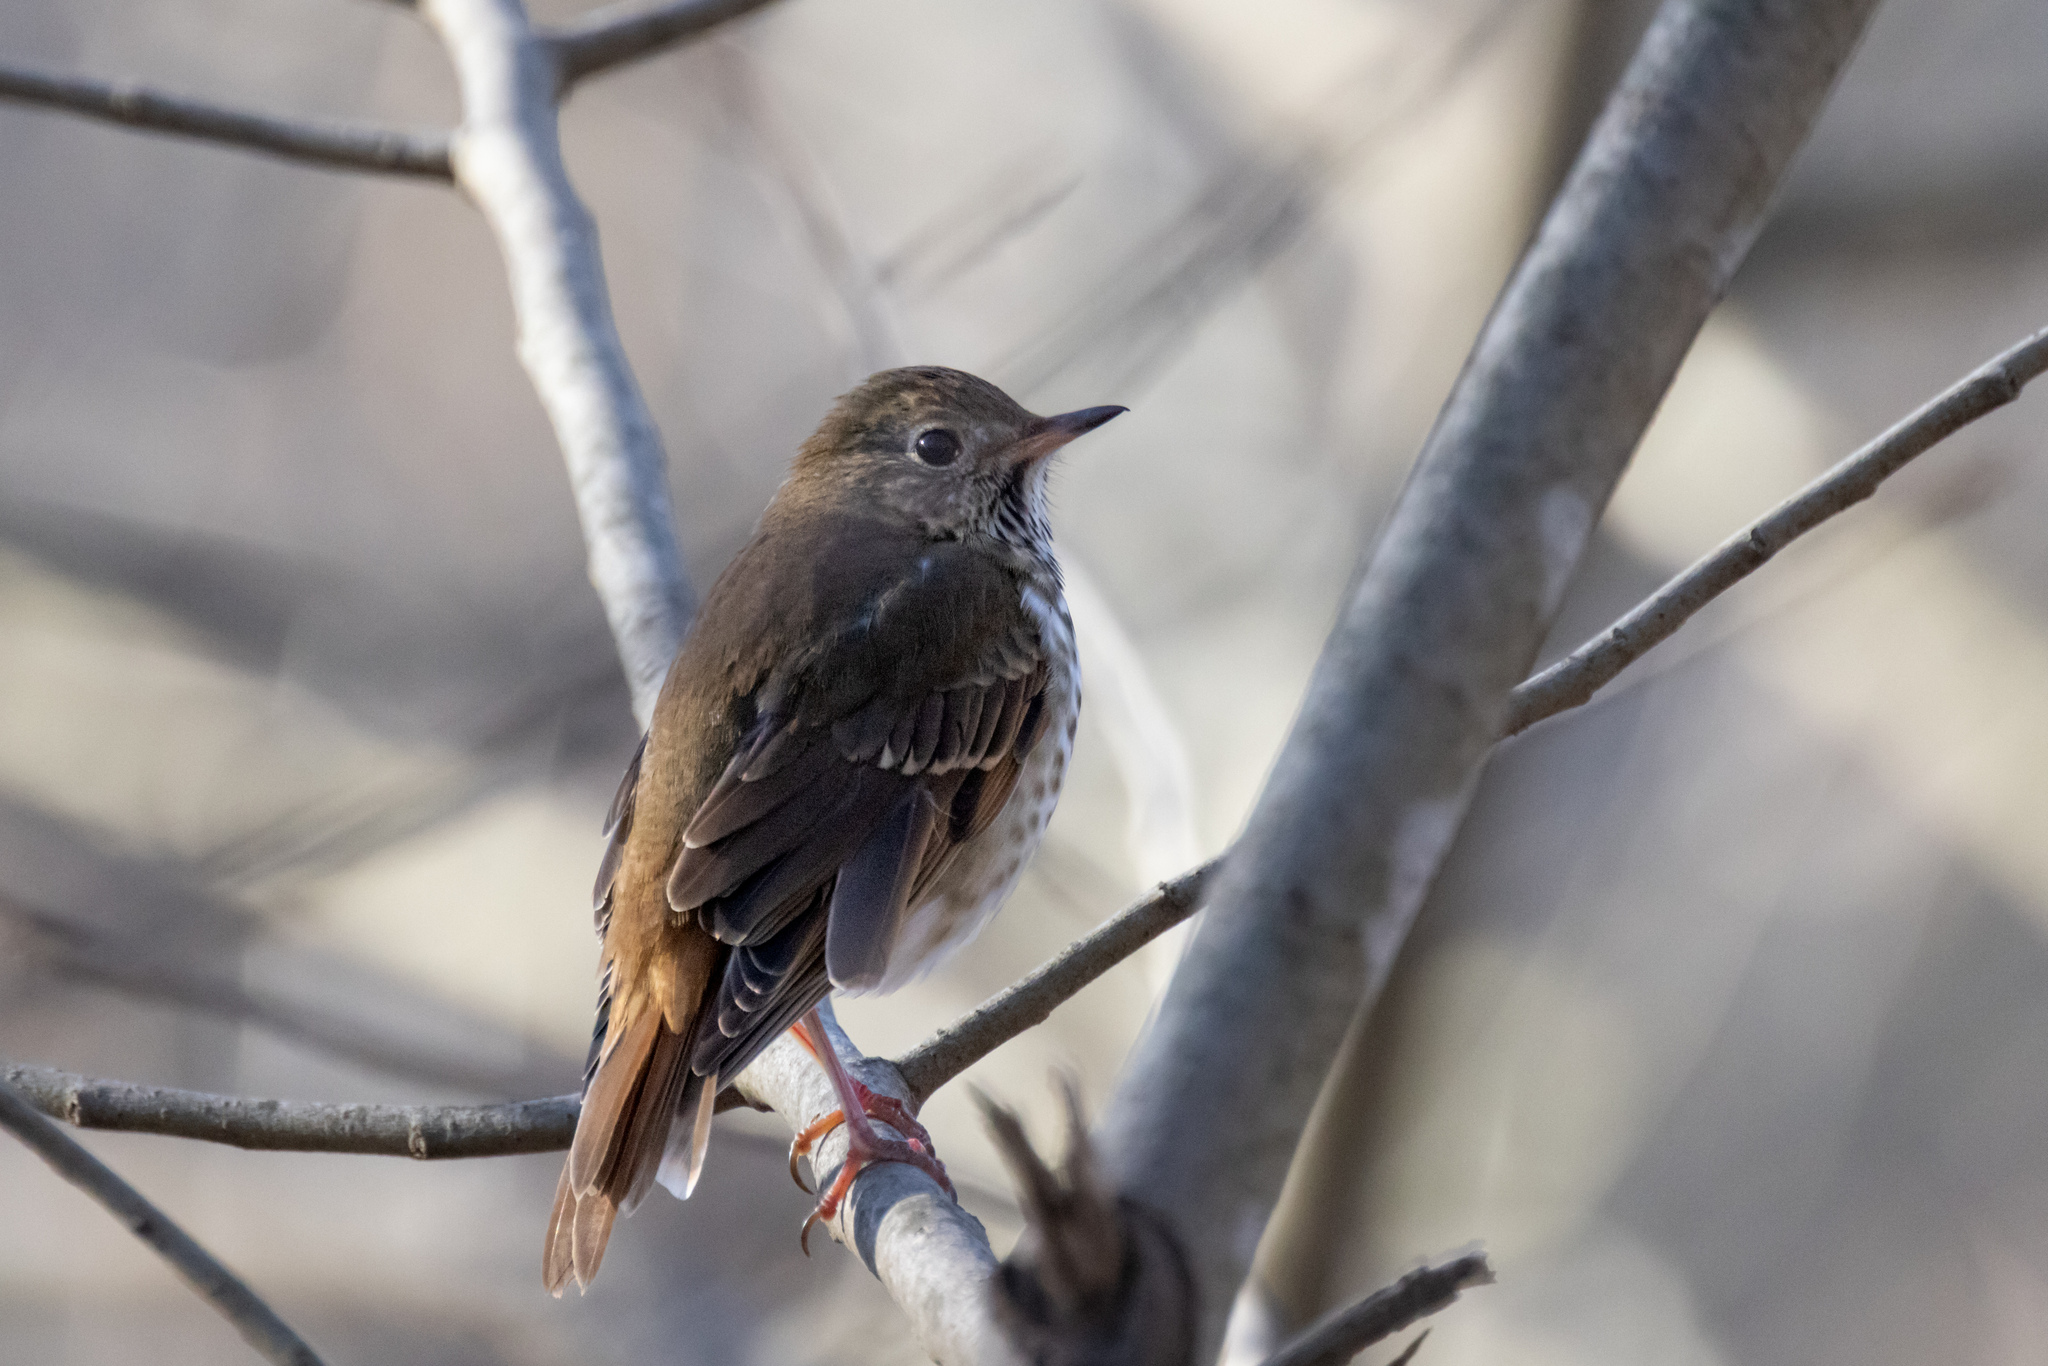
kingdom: Animalia
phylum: Chordata
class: Aves
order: Passeriformes
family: Turdidae
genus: Catharus
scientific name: Catharus guttatus
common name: Hermit thrush
